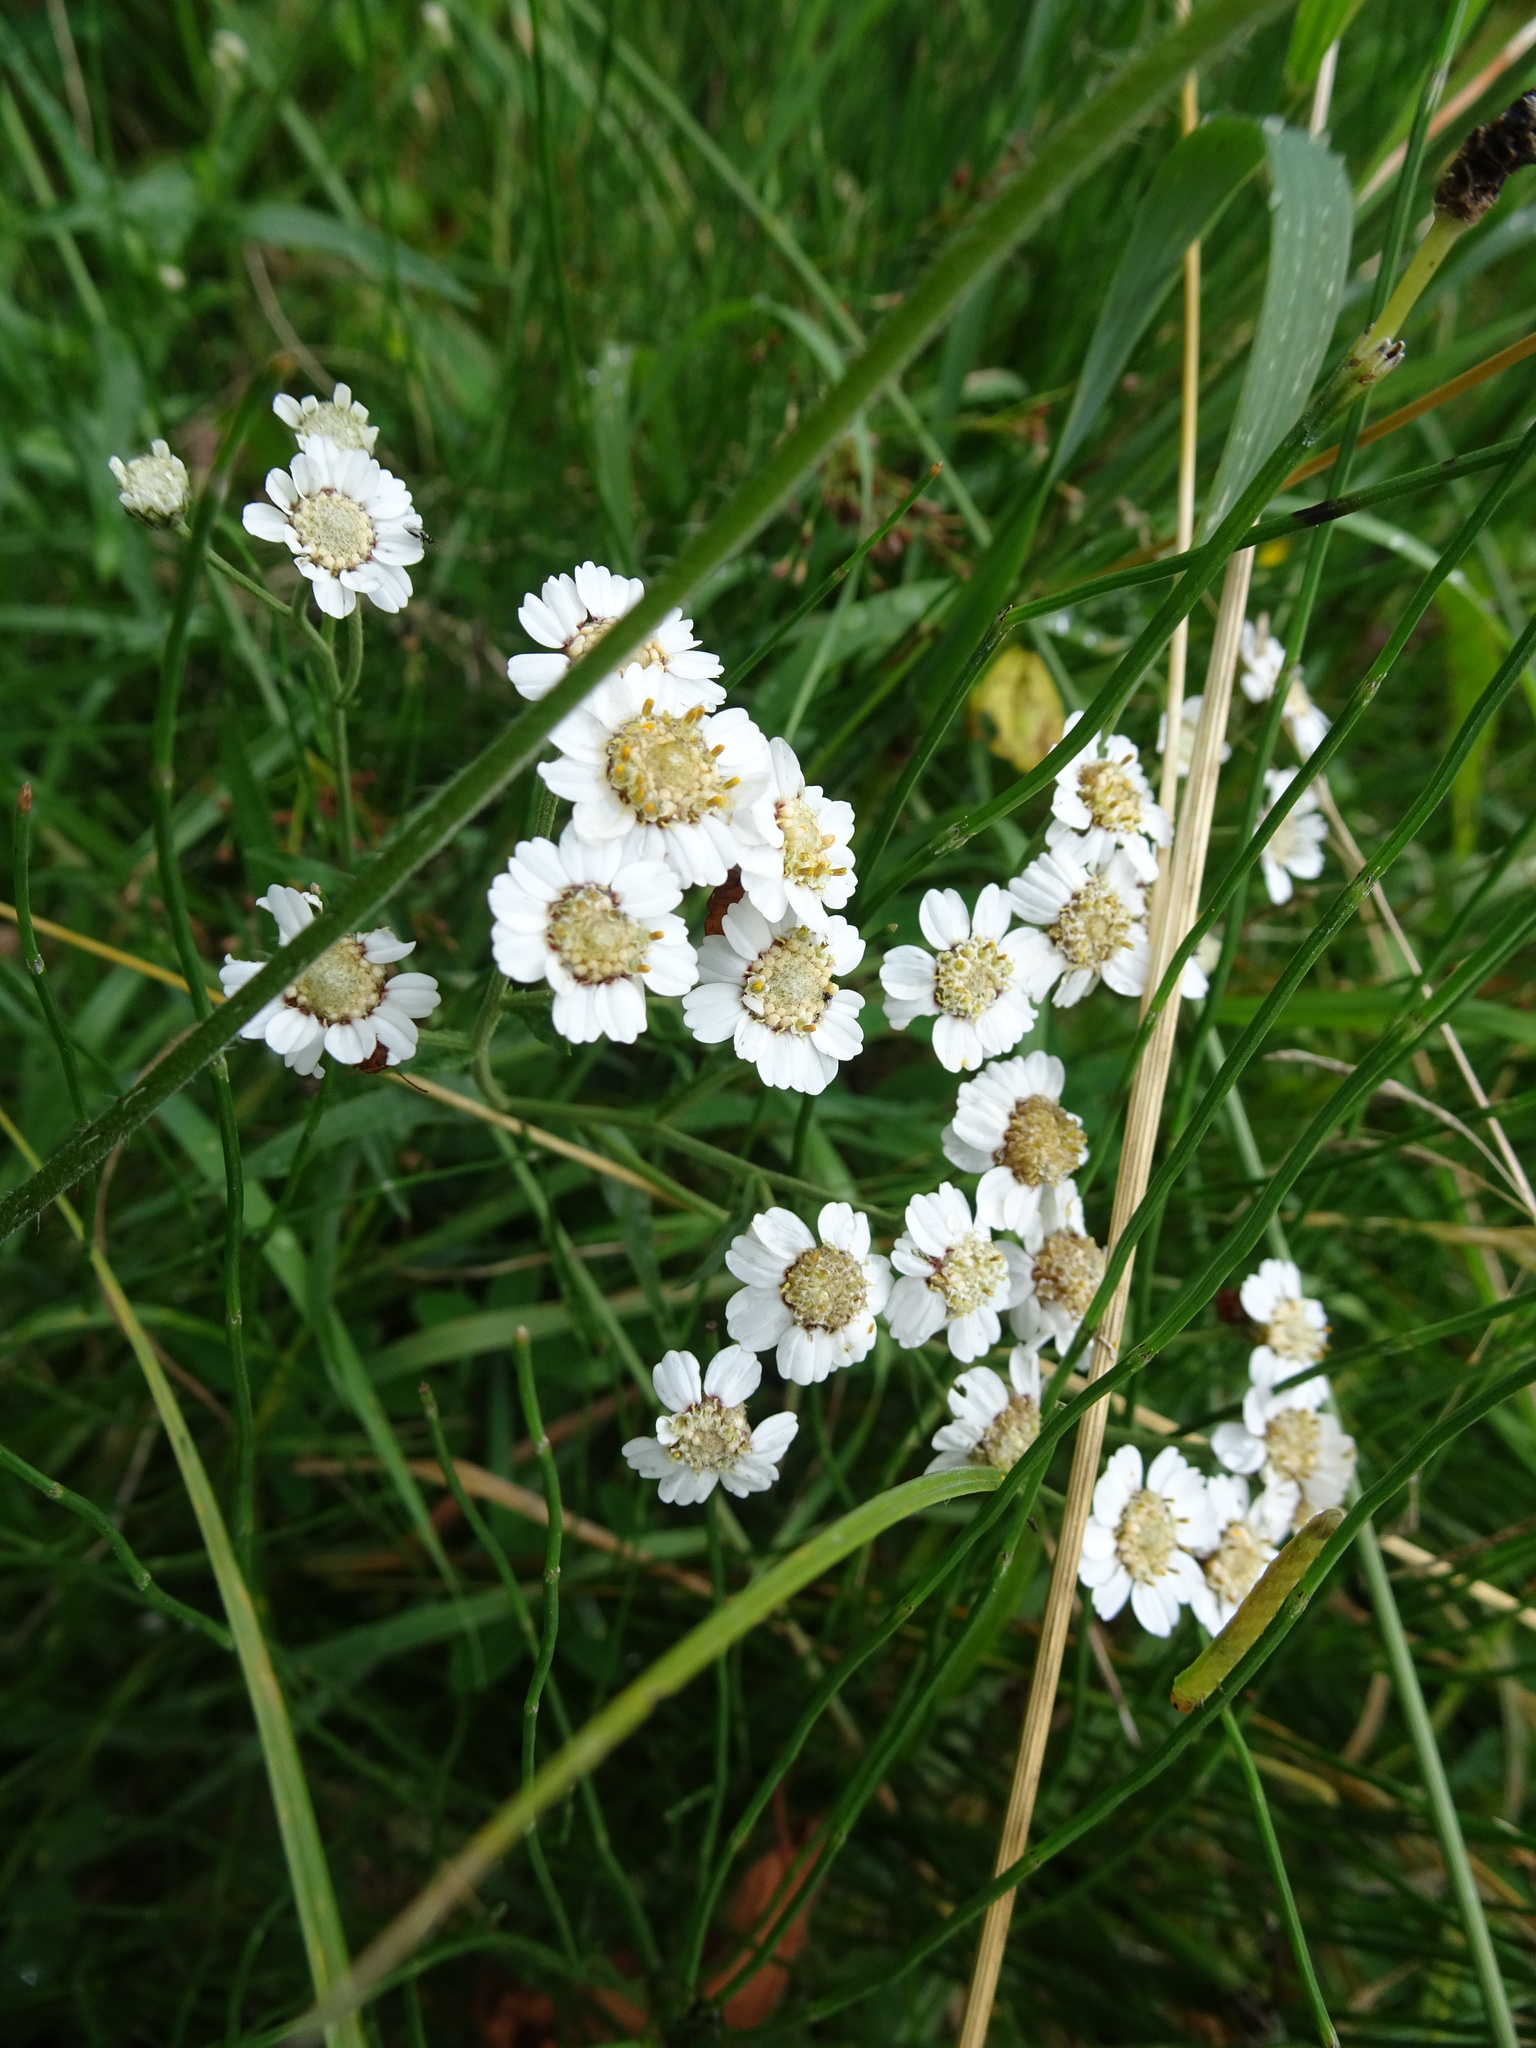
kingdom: Plantae
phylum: Tracheophyta
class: Magnoliopsida
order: Asterales
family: Asteraceae
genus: Achillea
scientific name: Achillea ptarmica
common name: Sneezeweed
